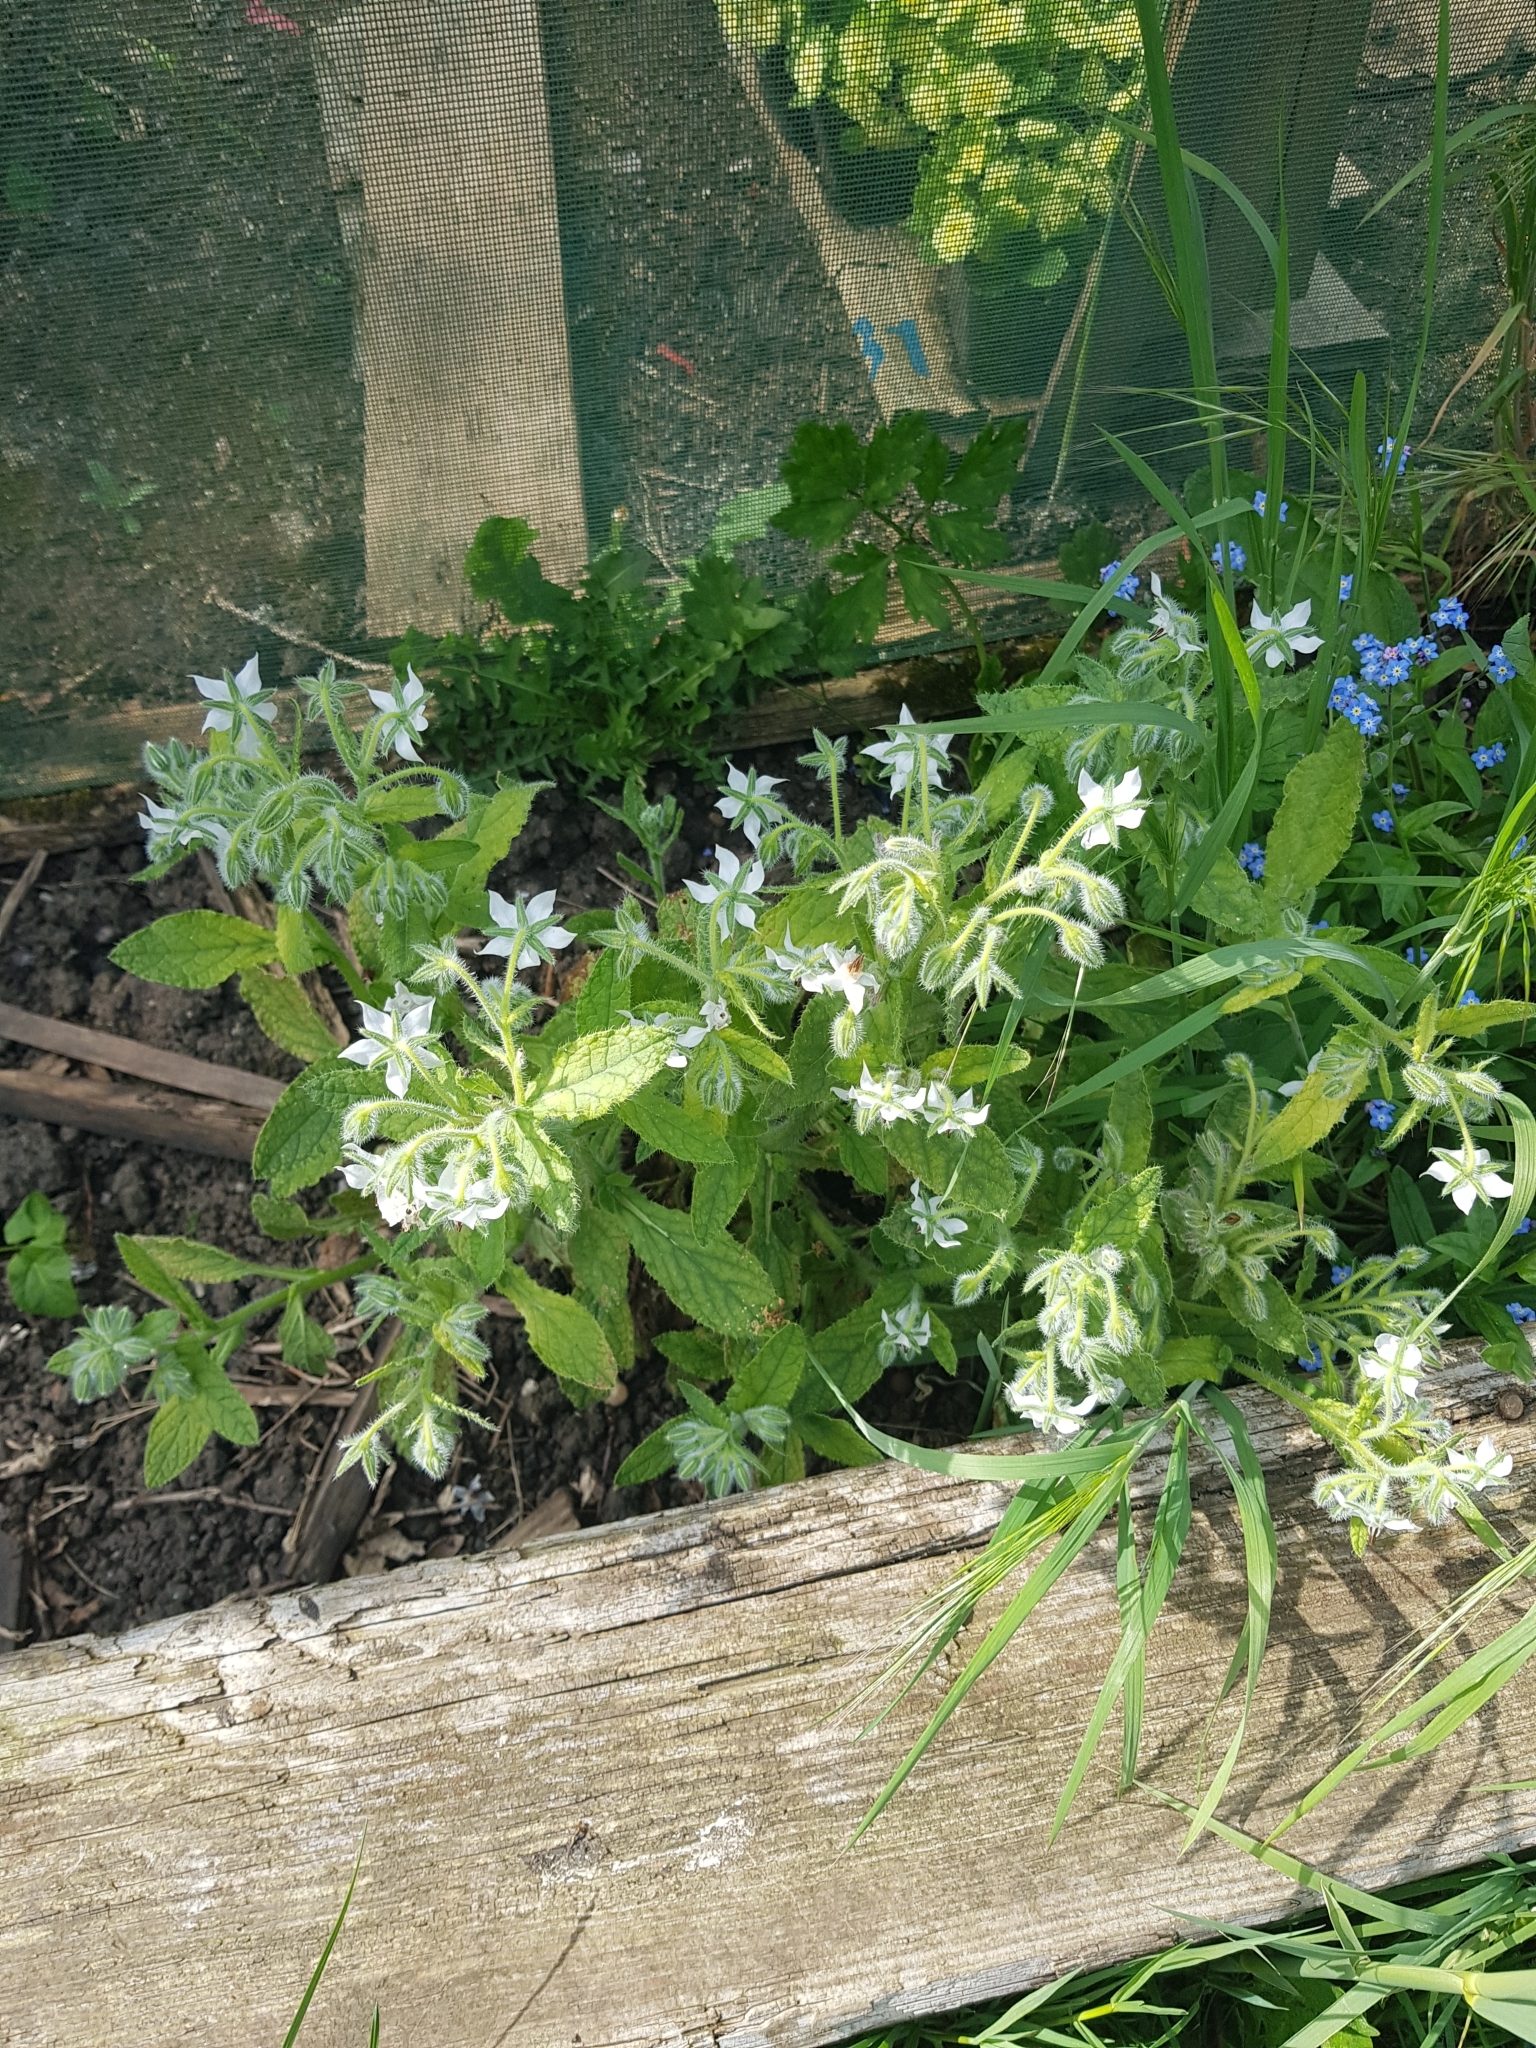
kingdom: Plantae
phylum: Tracheophyta
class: Magnoliopsida
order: Boraginales
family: Boraginaceae
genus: Borago
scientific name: Borago officinalis
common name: Borage
